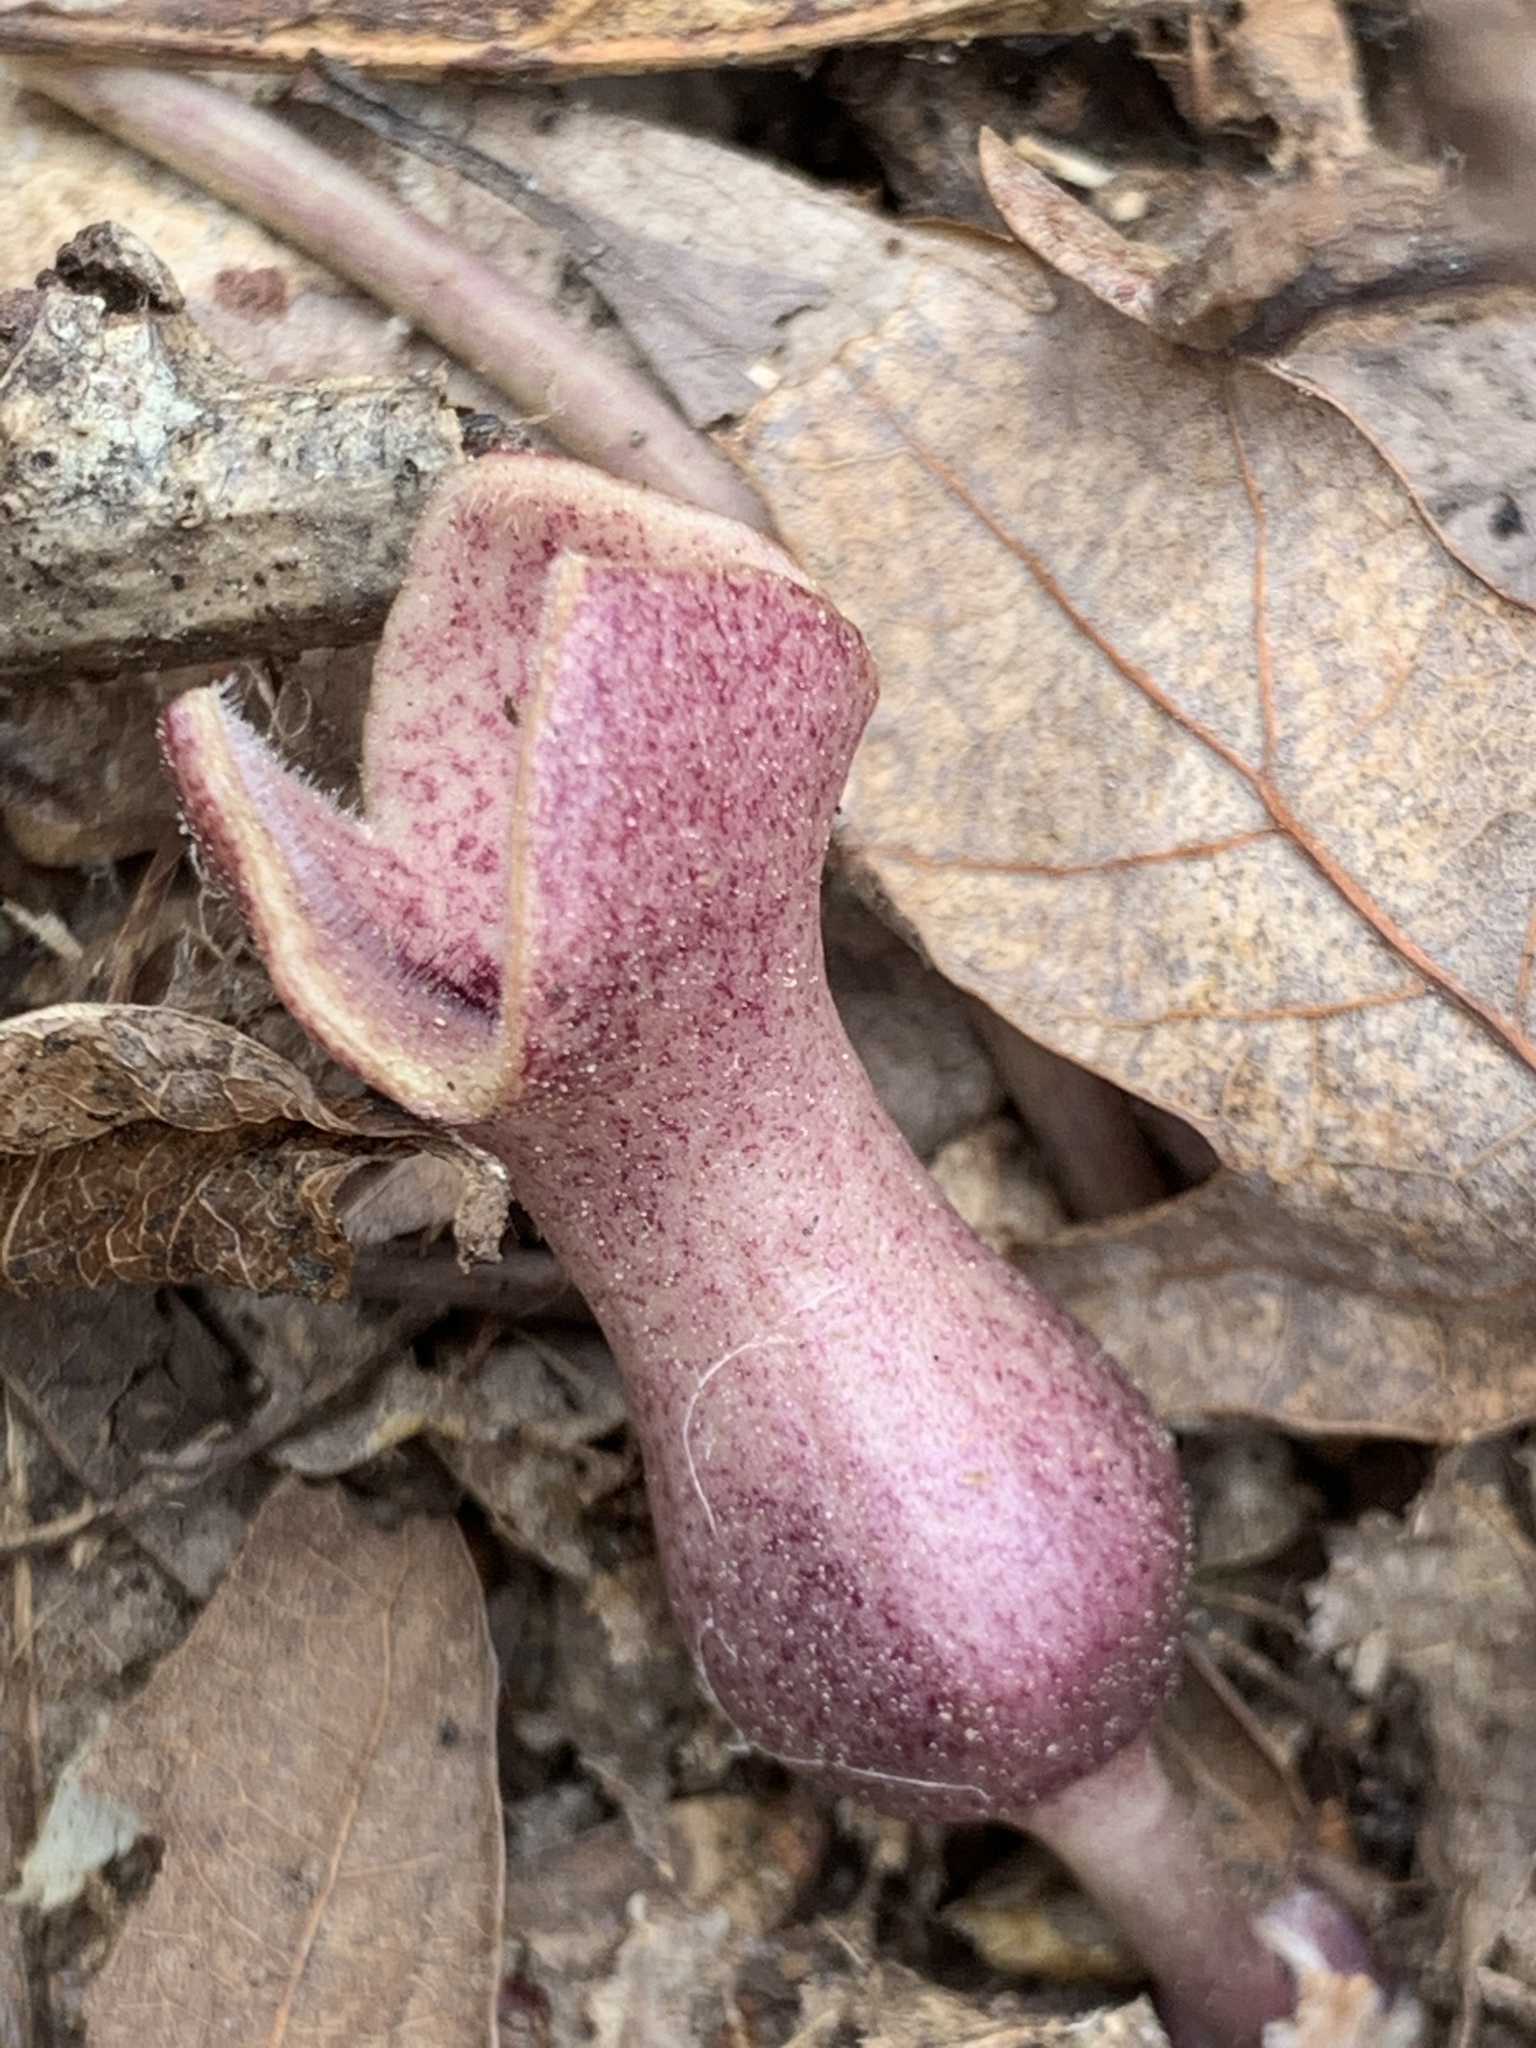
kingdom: Plantae
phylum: Tracheophyta
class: Magnoliopsida
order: Piperales
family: Aristolochiaceae
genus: Hexastylis
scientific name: Hexastylis arifolia
